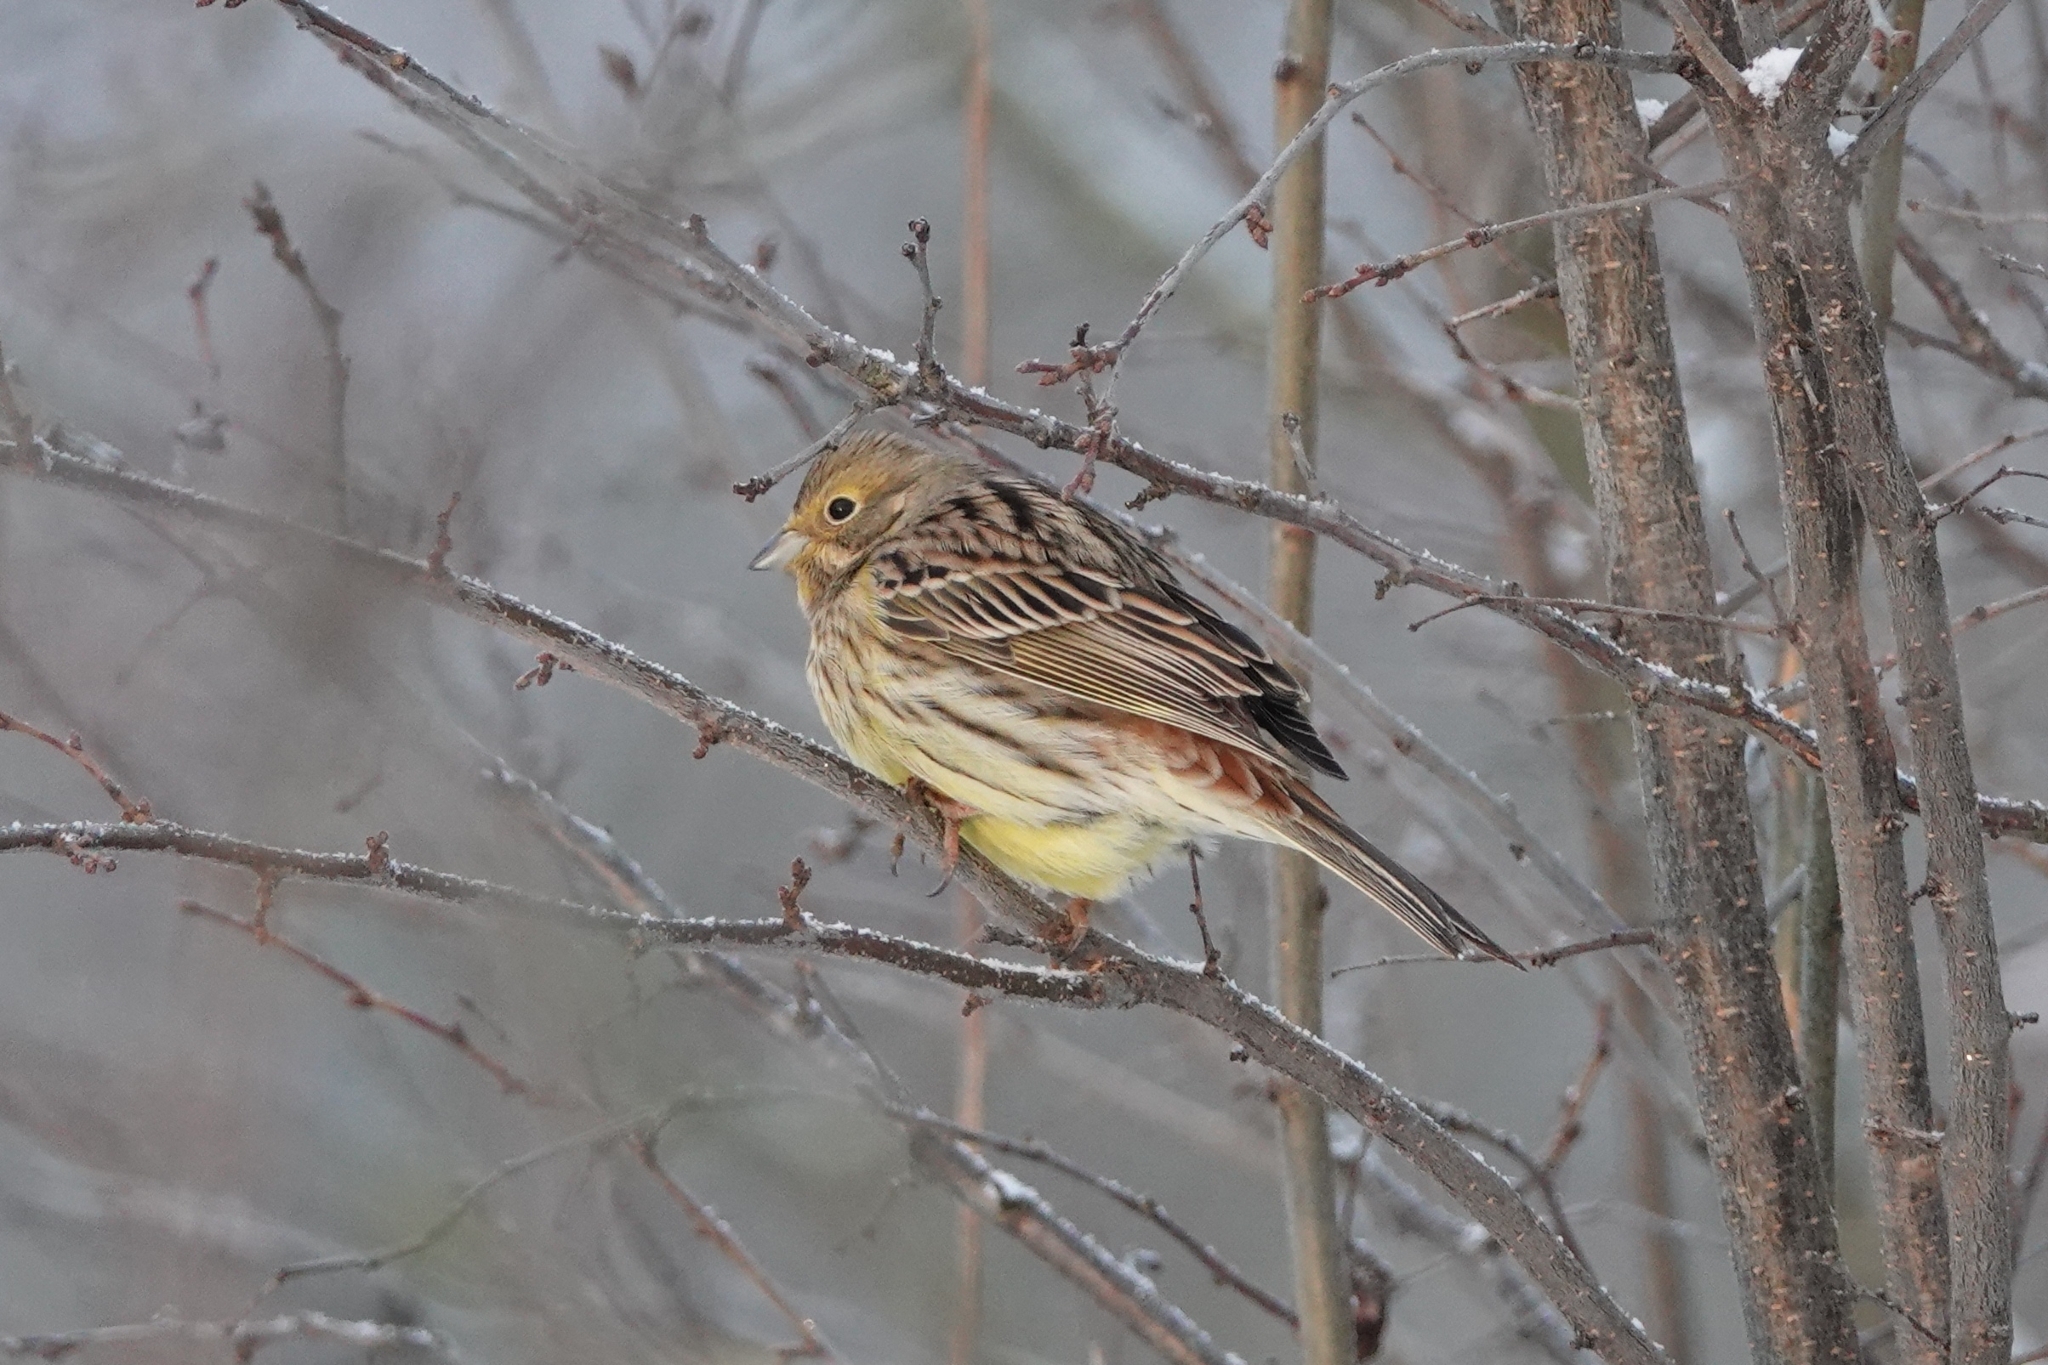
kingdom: Animalia
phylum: Chordata
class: Aves
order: Passeriformes
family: Emberizidae
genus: Emberiza
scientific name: Emberiza citrinella
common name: Yellowhammer
